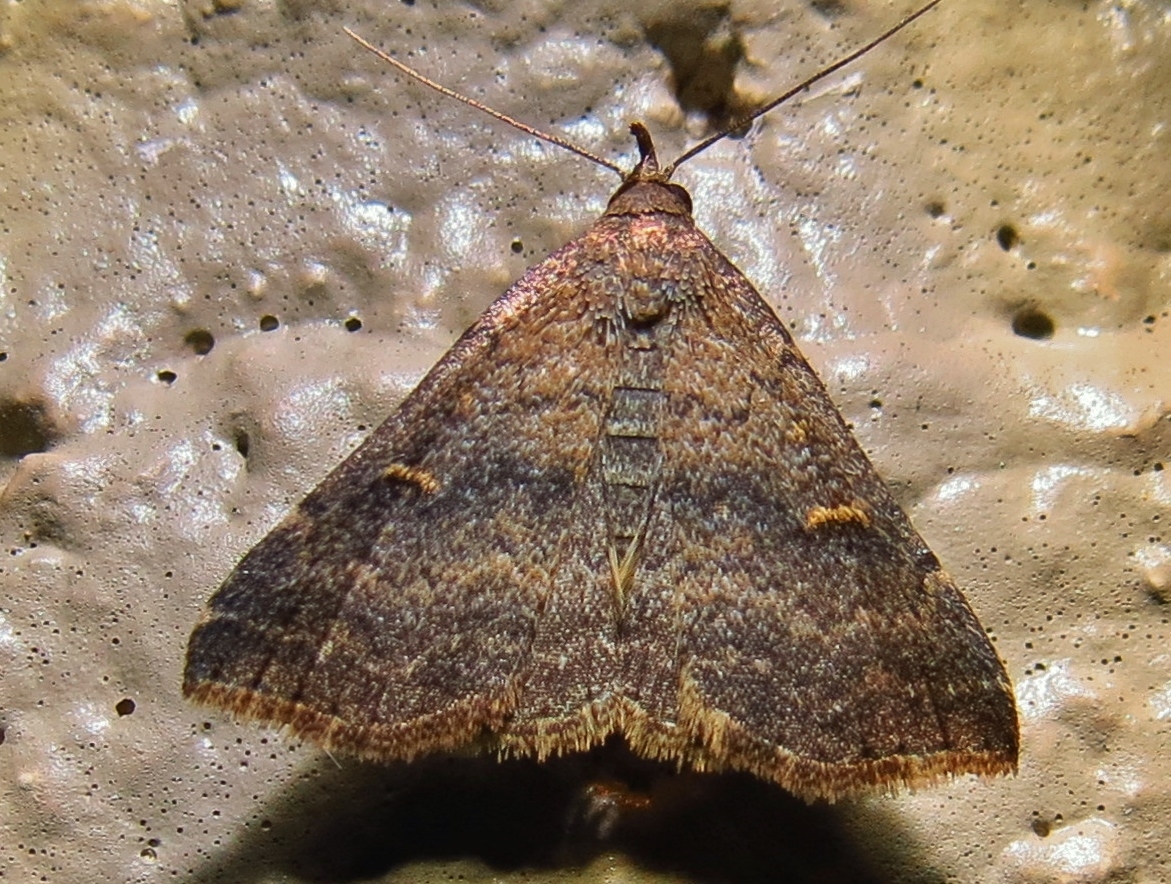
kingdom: Animalia
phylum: Arthropoda
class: Insecta
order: Lepidoptera
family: Erebidae
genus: Tetanolita
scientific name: Tetanolita mynesalis
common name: Smoky tetanolita moth
